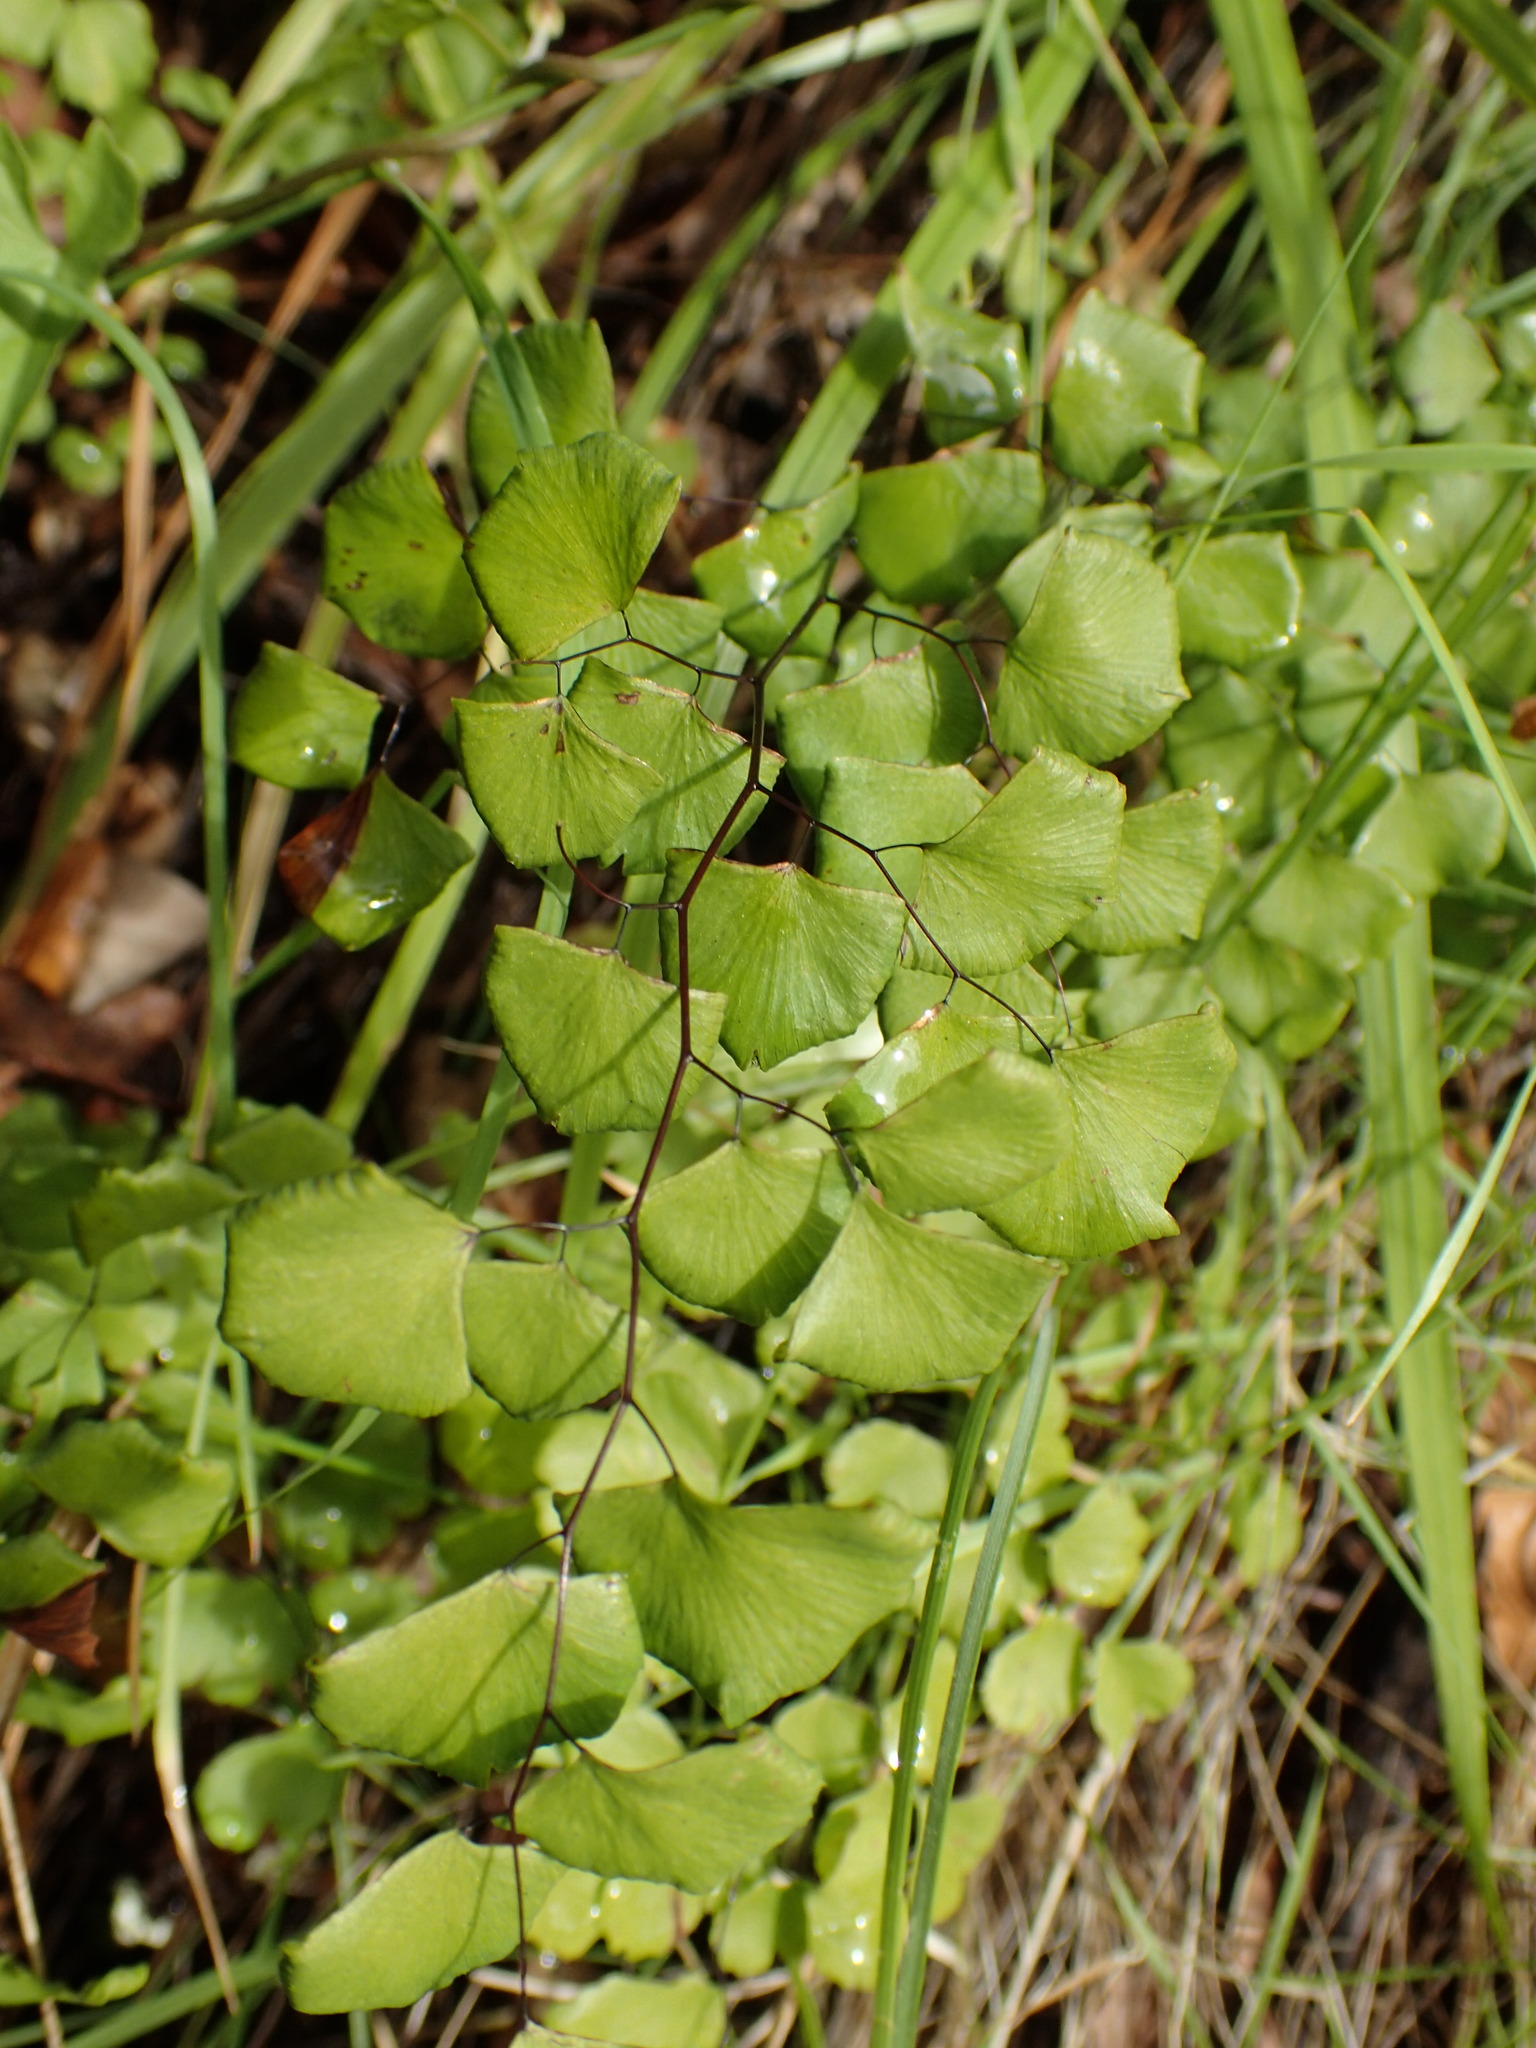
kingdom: Plantae
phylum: Tracheophyta
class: Polypodiopsida
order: Polypodiales
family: Pteridaceae
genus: Adiantum
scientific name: Adiantum jordanii
